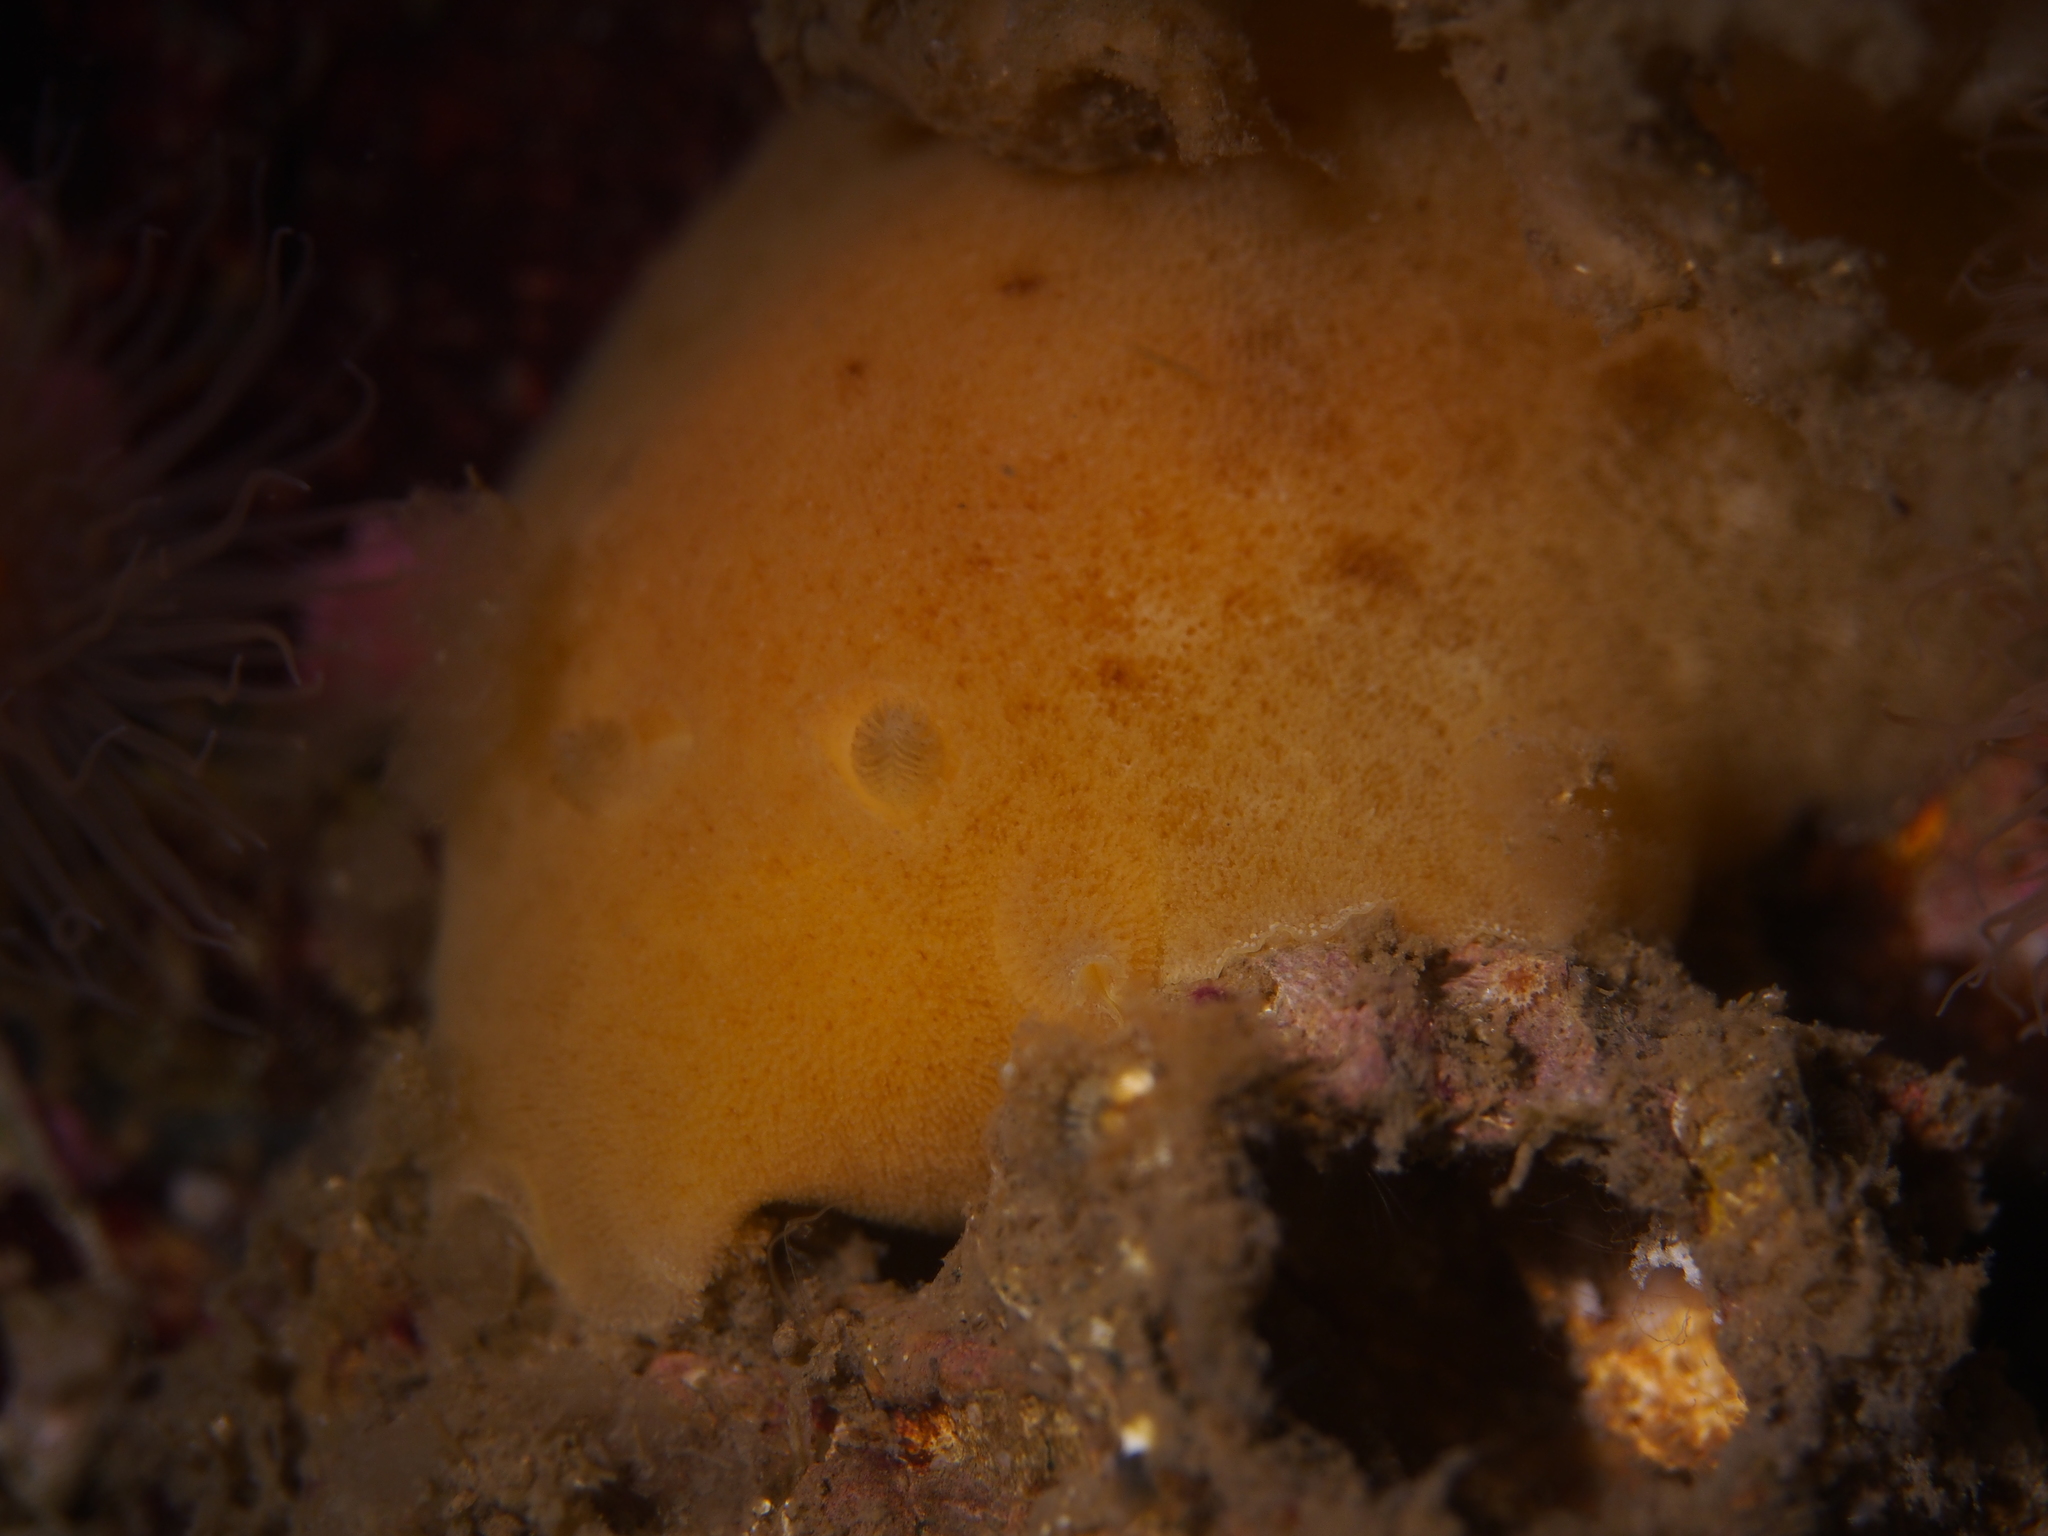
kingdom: Animalia
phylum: Mollusca
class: Gastropoda
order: Nudibranchia
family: Discodorididae
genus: Jorunna
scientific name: Jorunna tomentosa
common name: Grey sea slug
